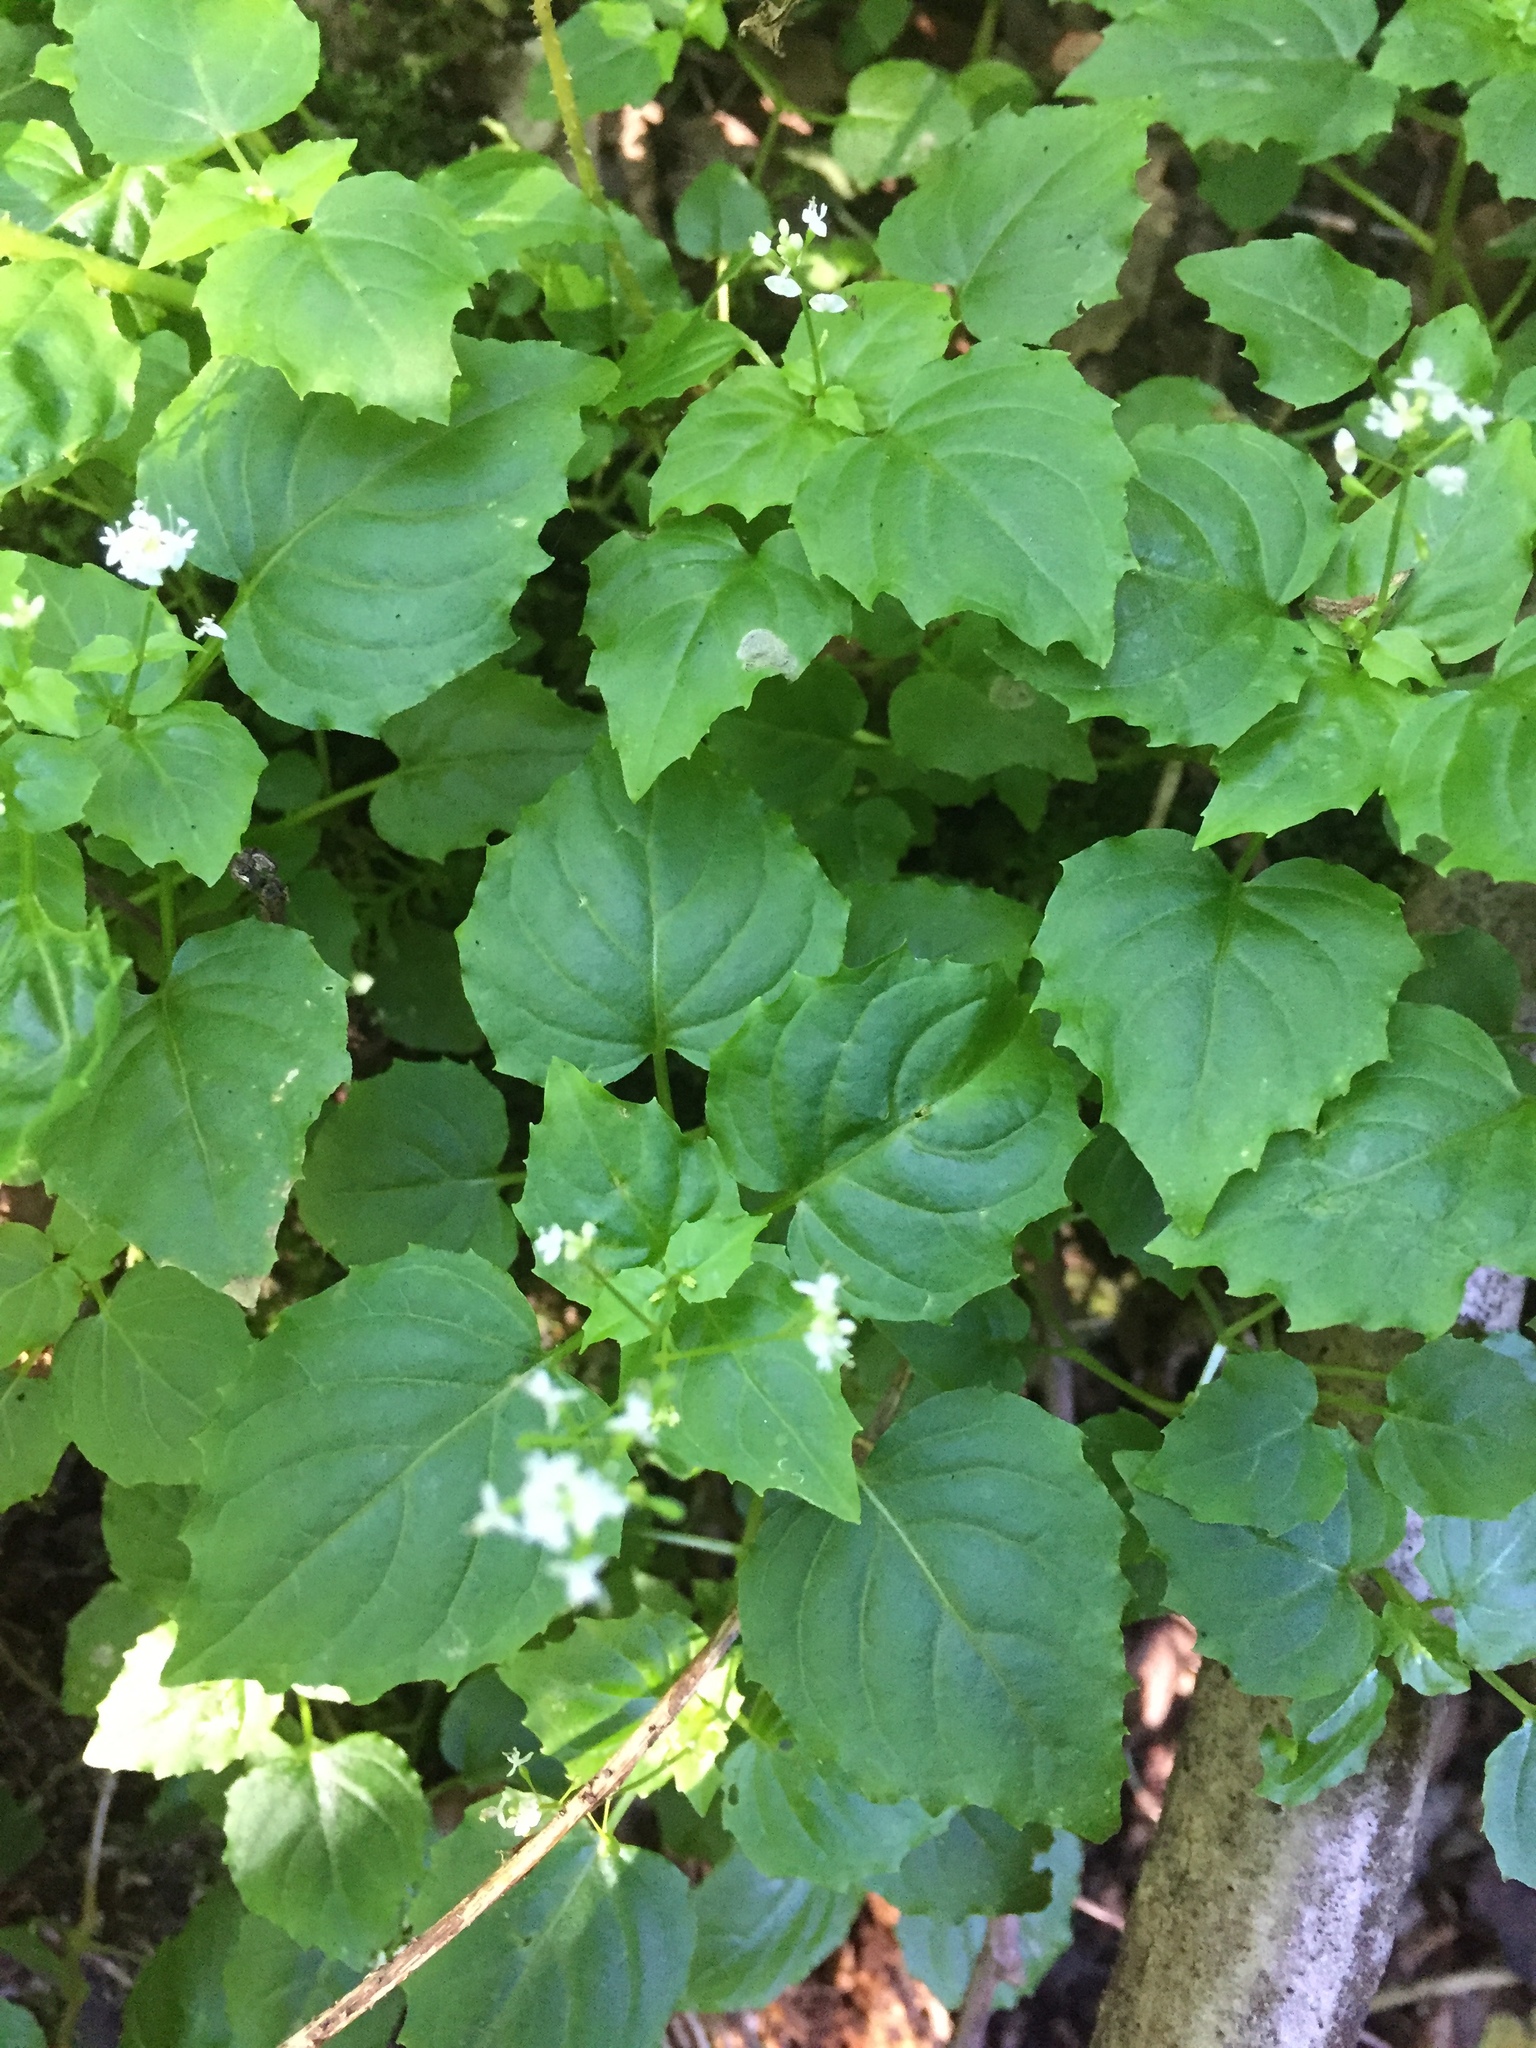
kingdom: Plantae
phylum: Tracheophyta
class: Magnoliopsida
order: Myrtales
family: Onagraceae
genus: Circaea
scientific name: Circaea alpina
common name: Alpine enchanter's-nightshade
